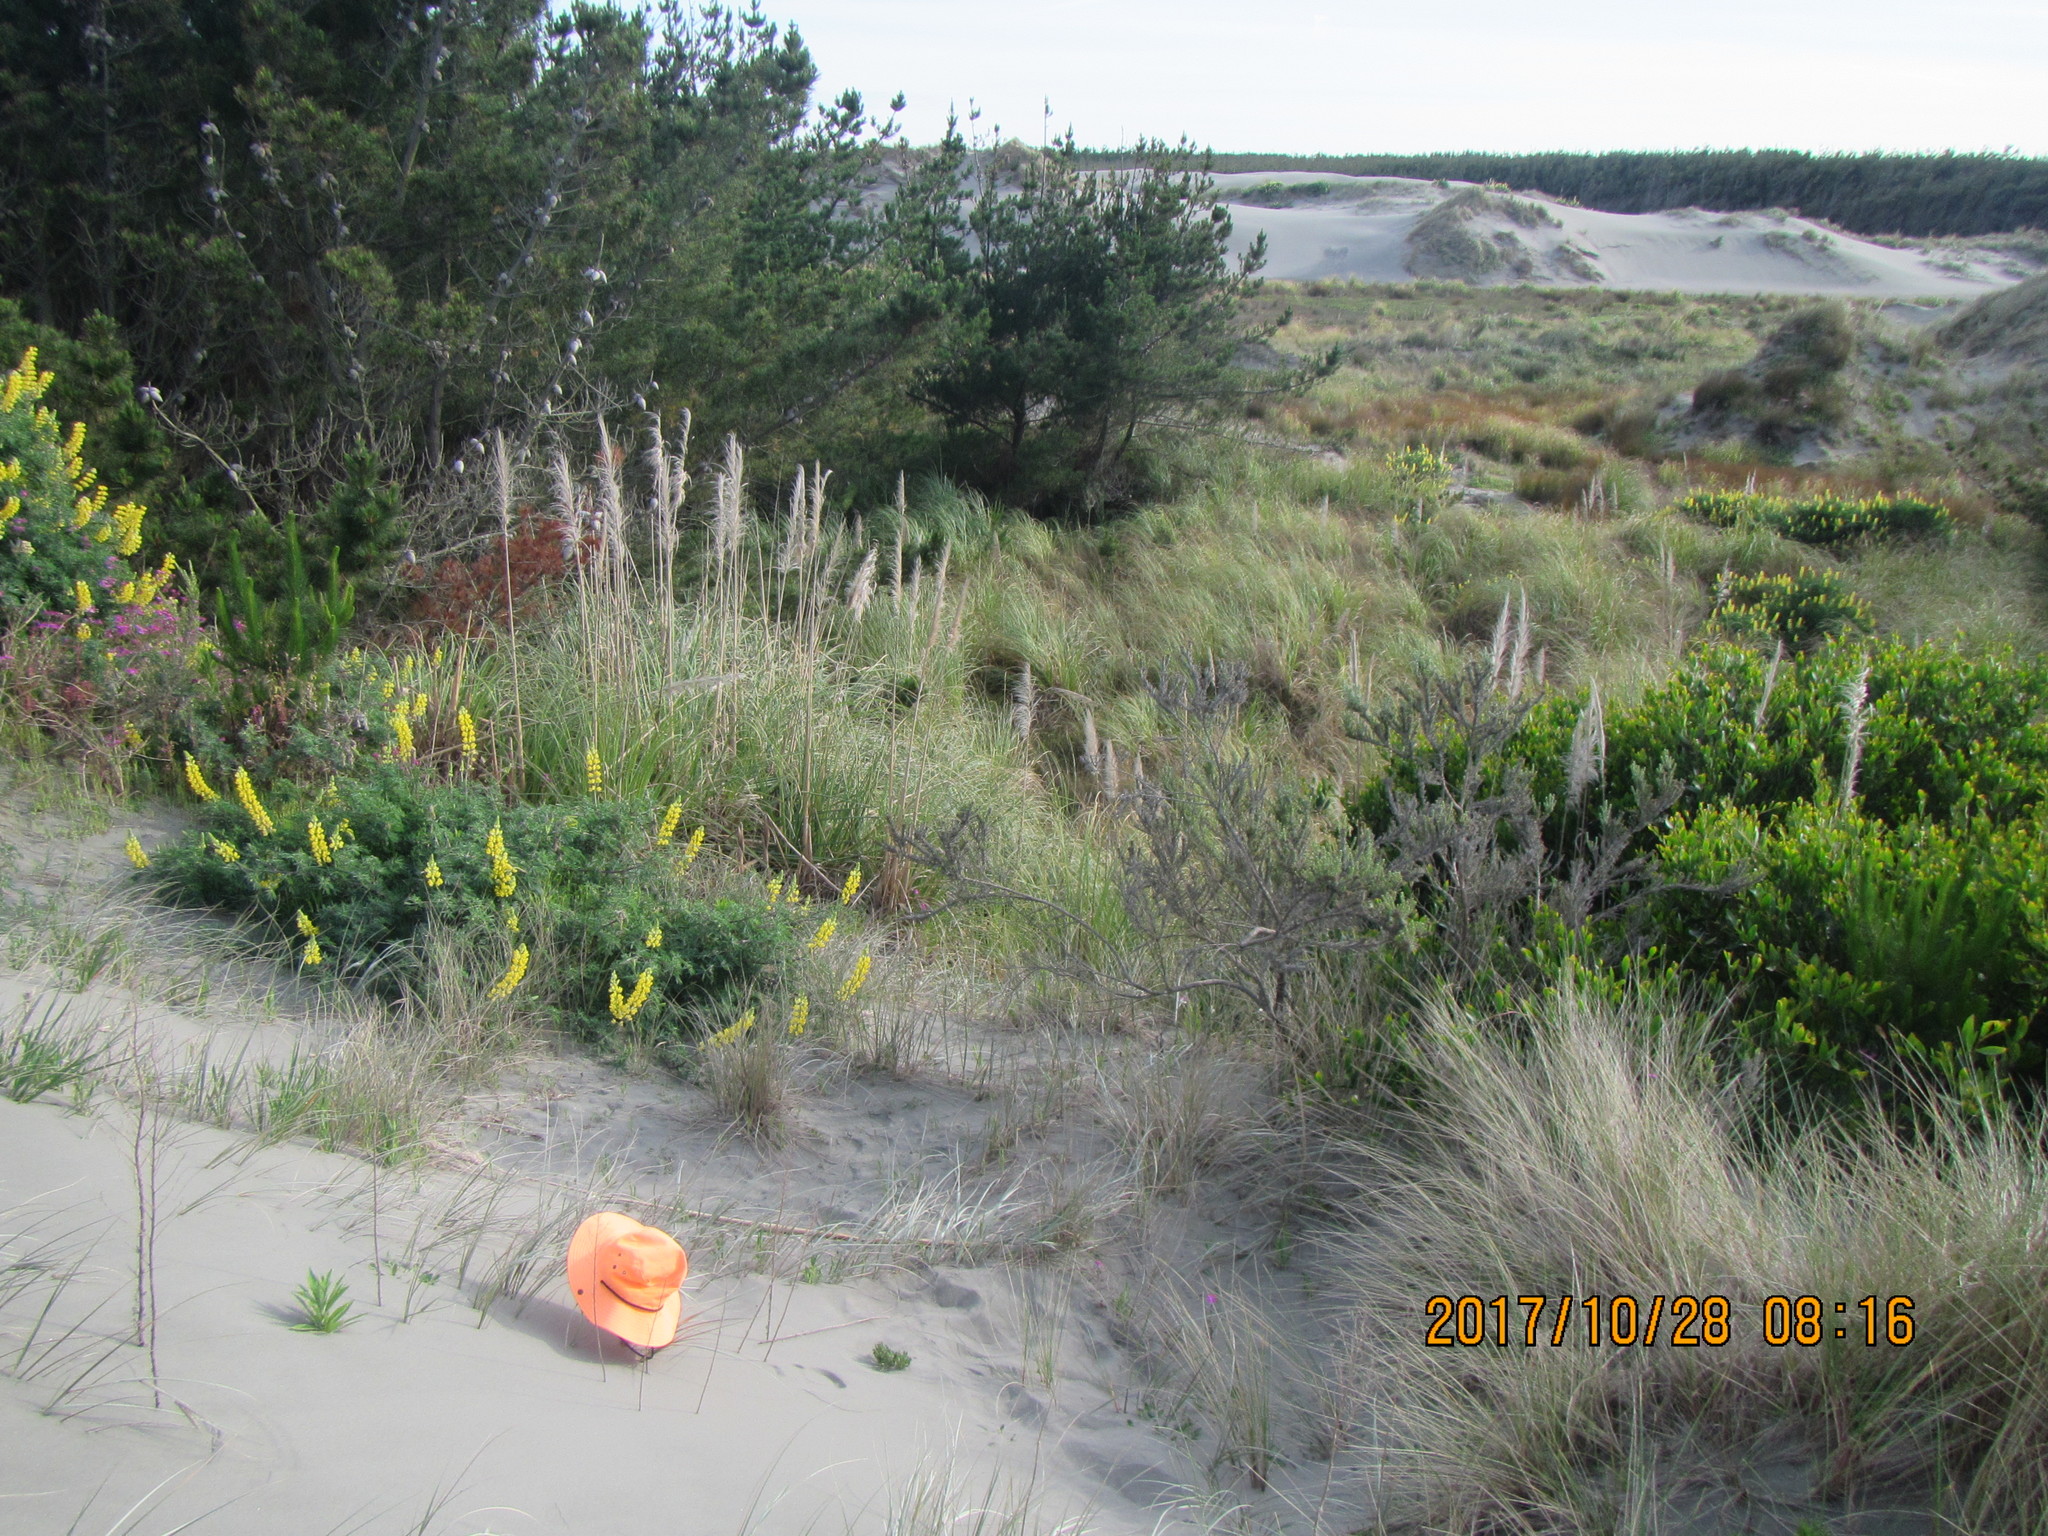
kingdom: Animalia
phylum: Arthropoda
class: Arachnida
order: Araneae
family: Lycosidae
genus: Anoteropsis
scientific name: Anoteropsis litoralis
